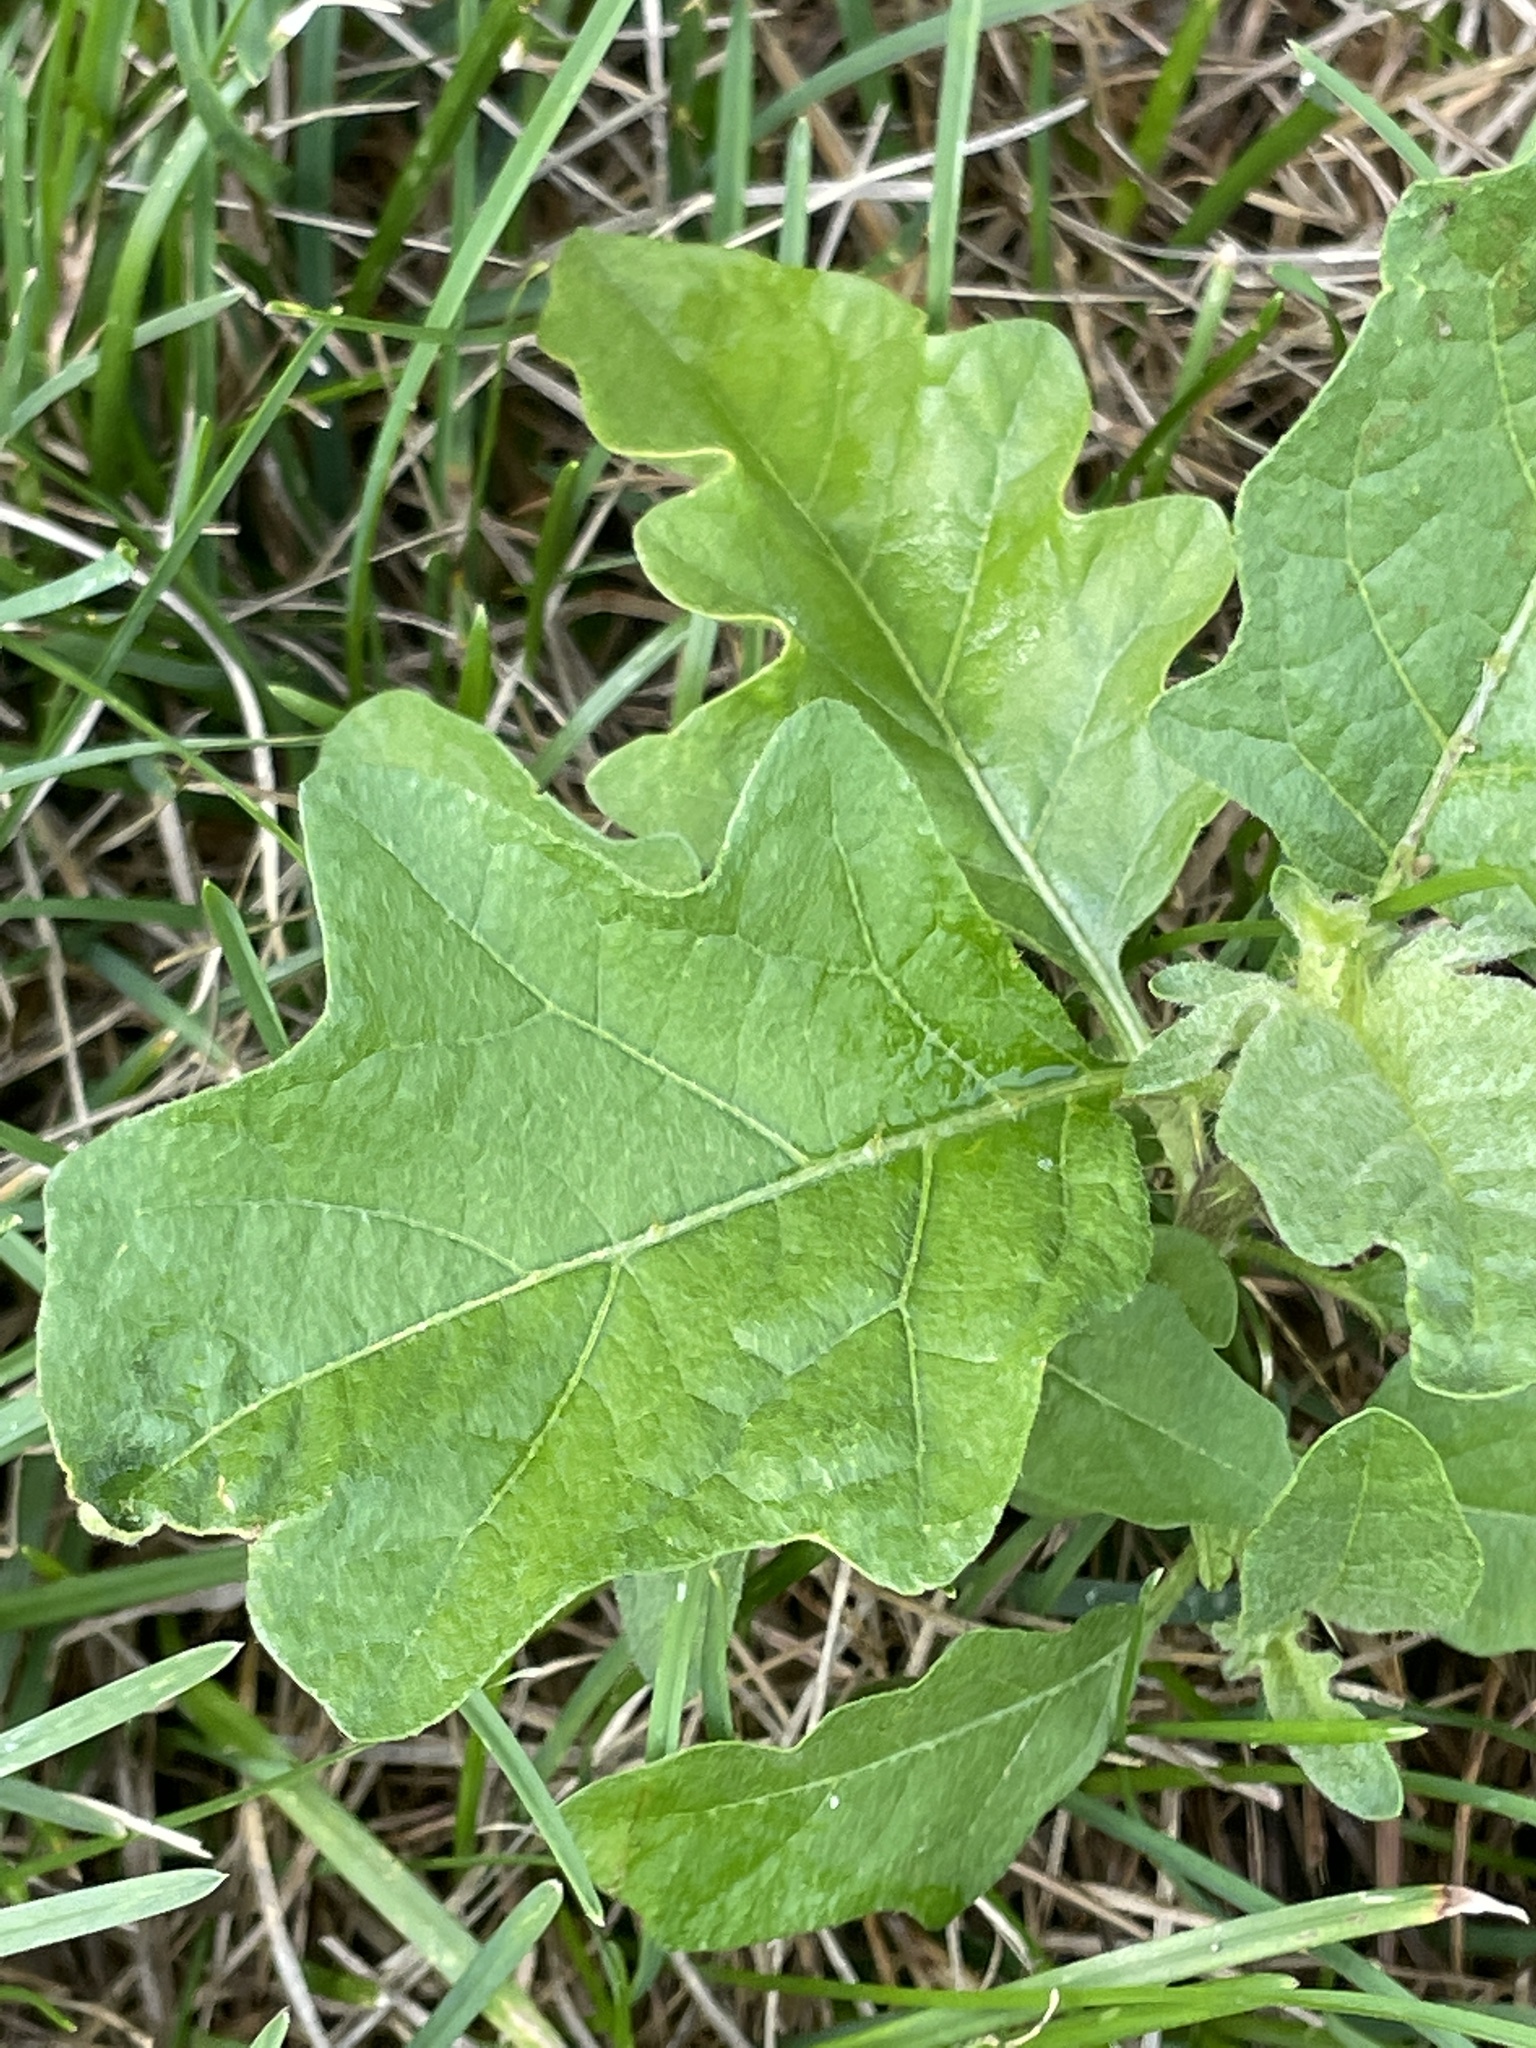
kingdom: Plantae
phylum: Tracheophyta
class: Magnoliopsida
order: Solanales
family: Solanaceae
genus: Solanum
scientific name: Solanum carolinense
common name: Horse-nettle
